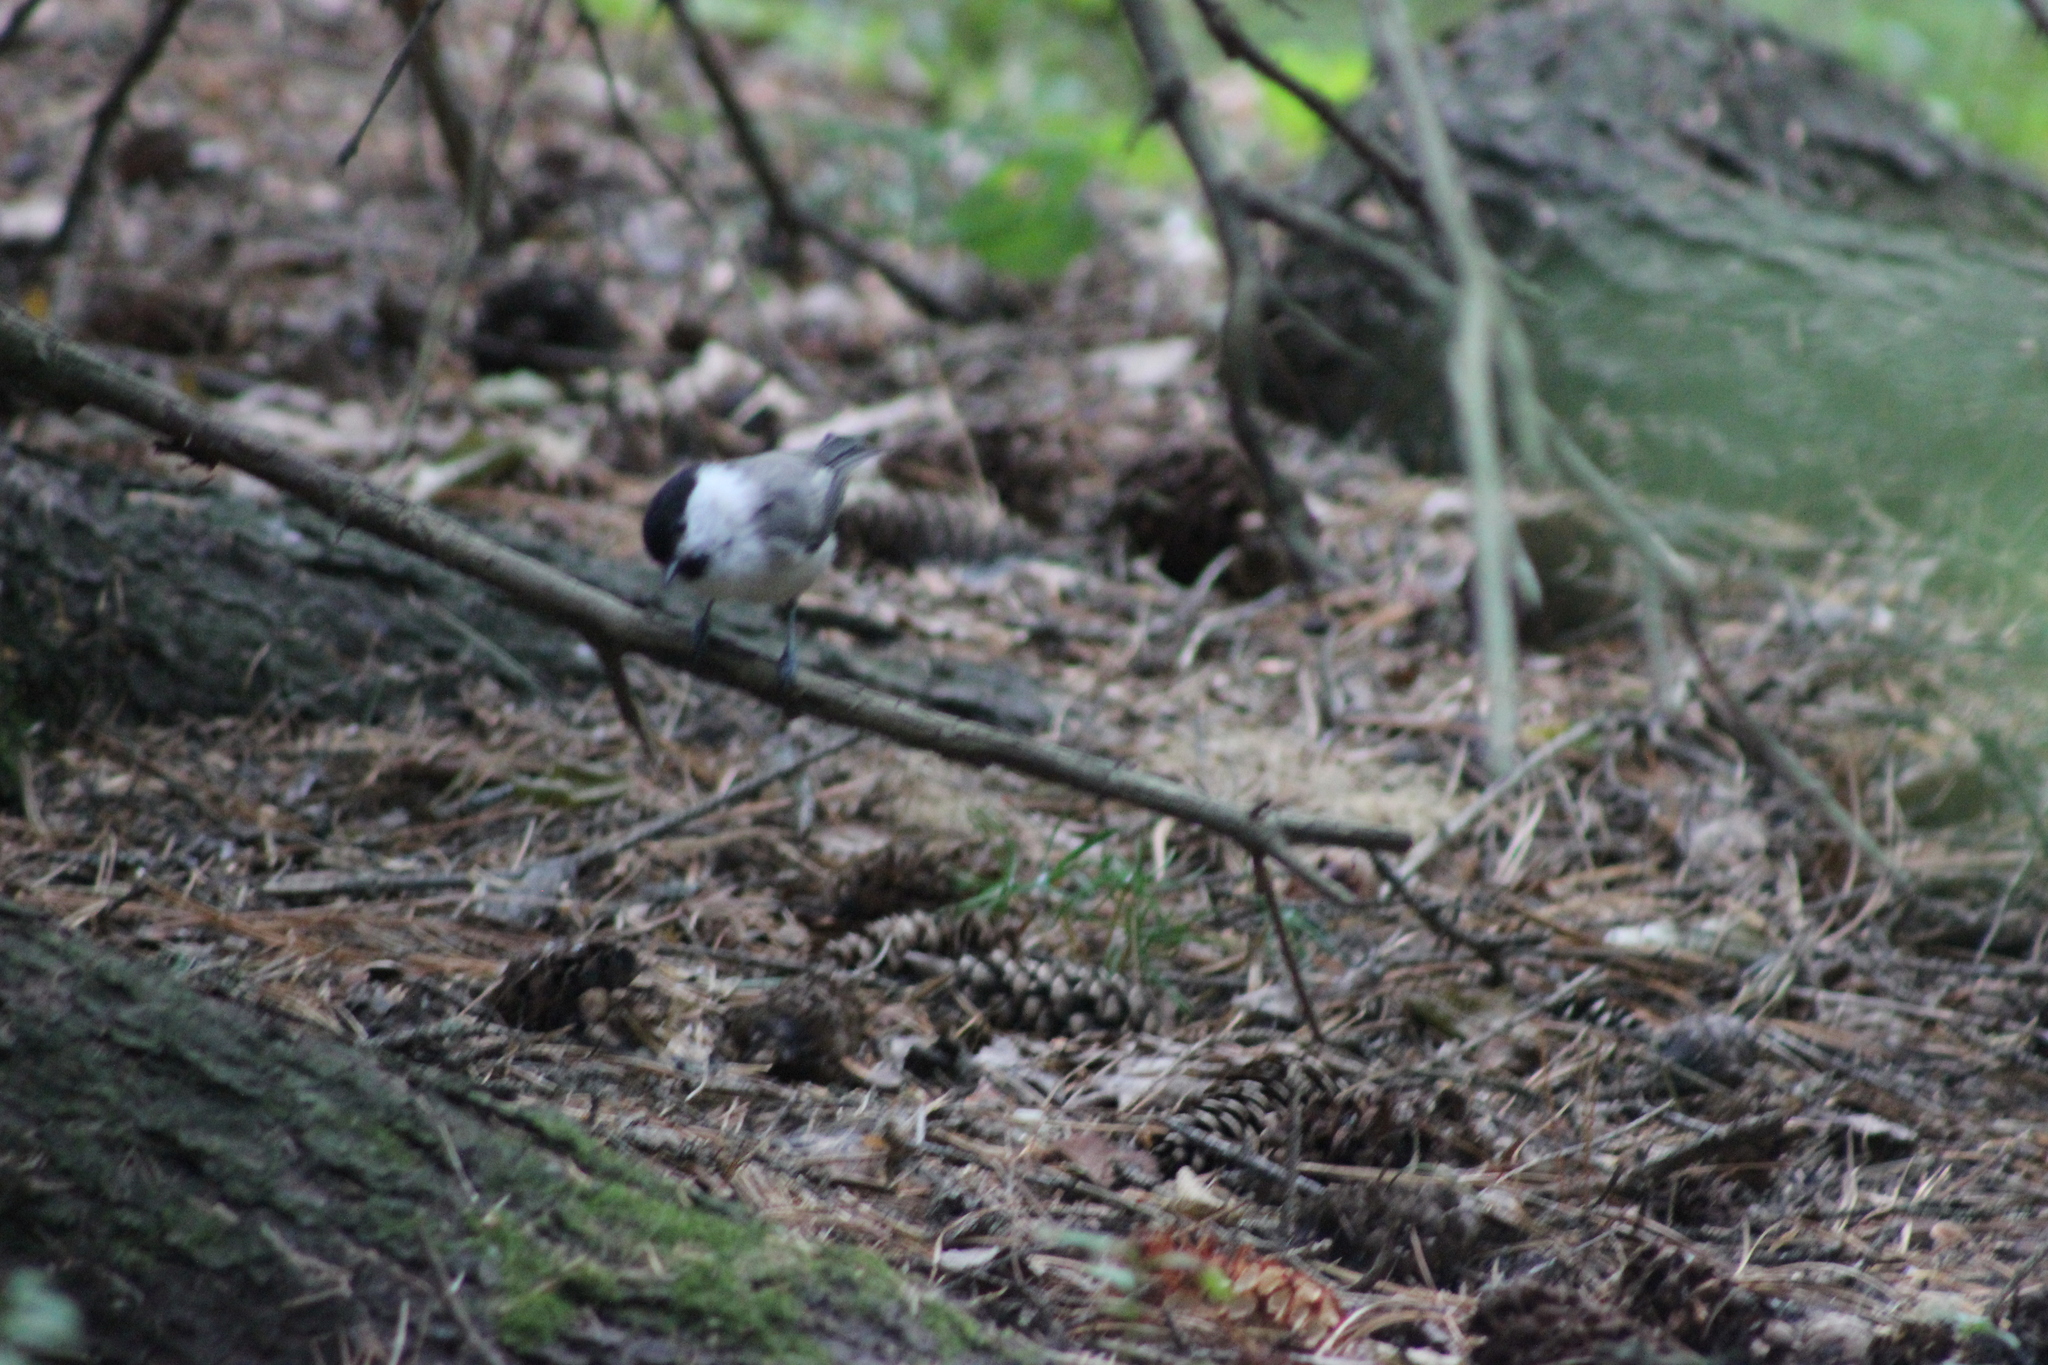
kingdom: Animalia
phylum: Chordata
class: Aves
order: Passeriformes
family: Paridae
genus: Poecile
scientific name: Poecile montanus
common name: Willow tit
